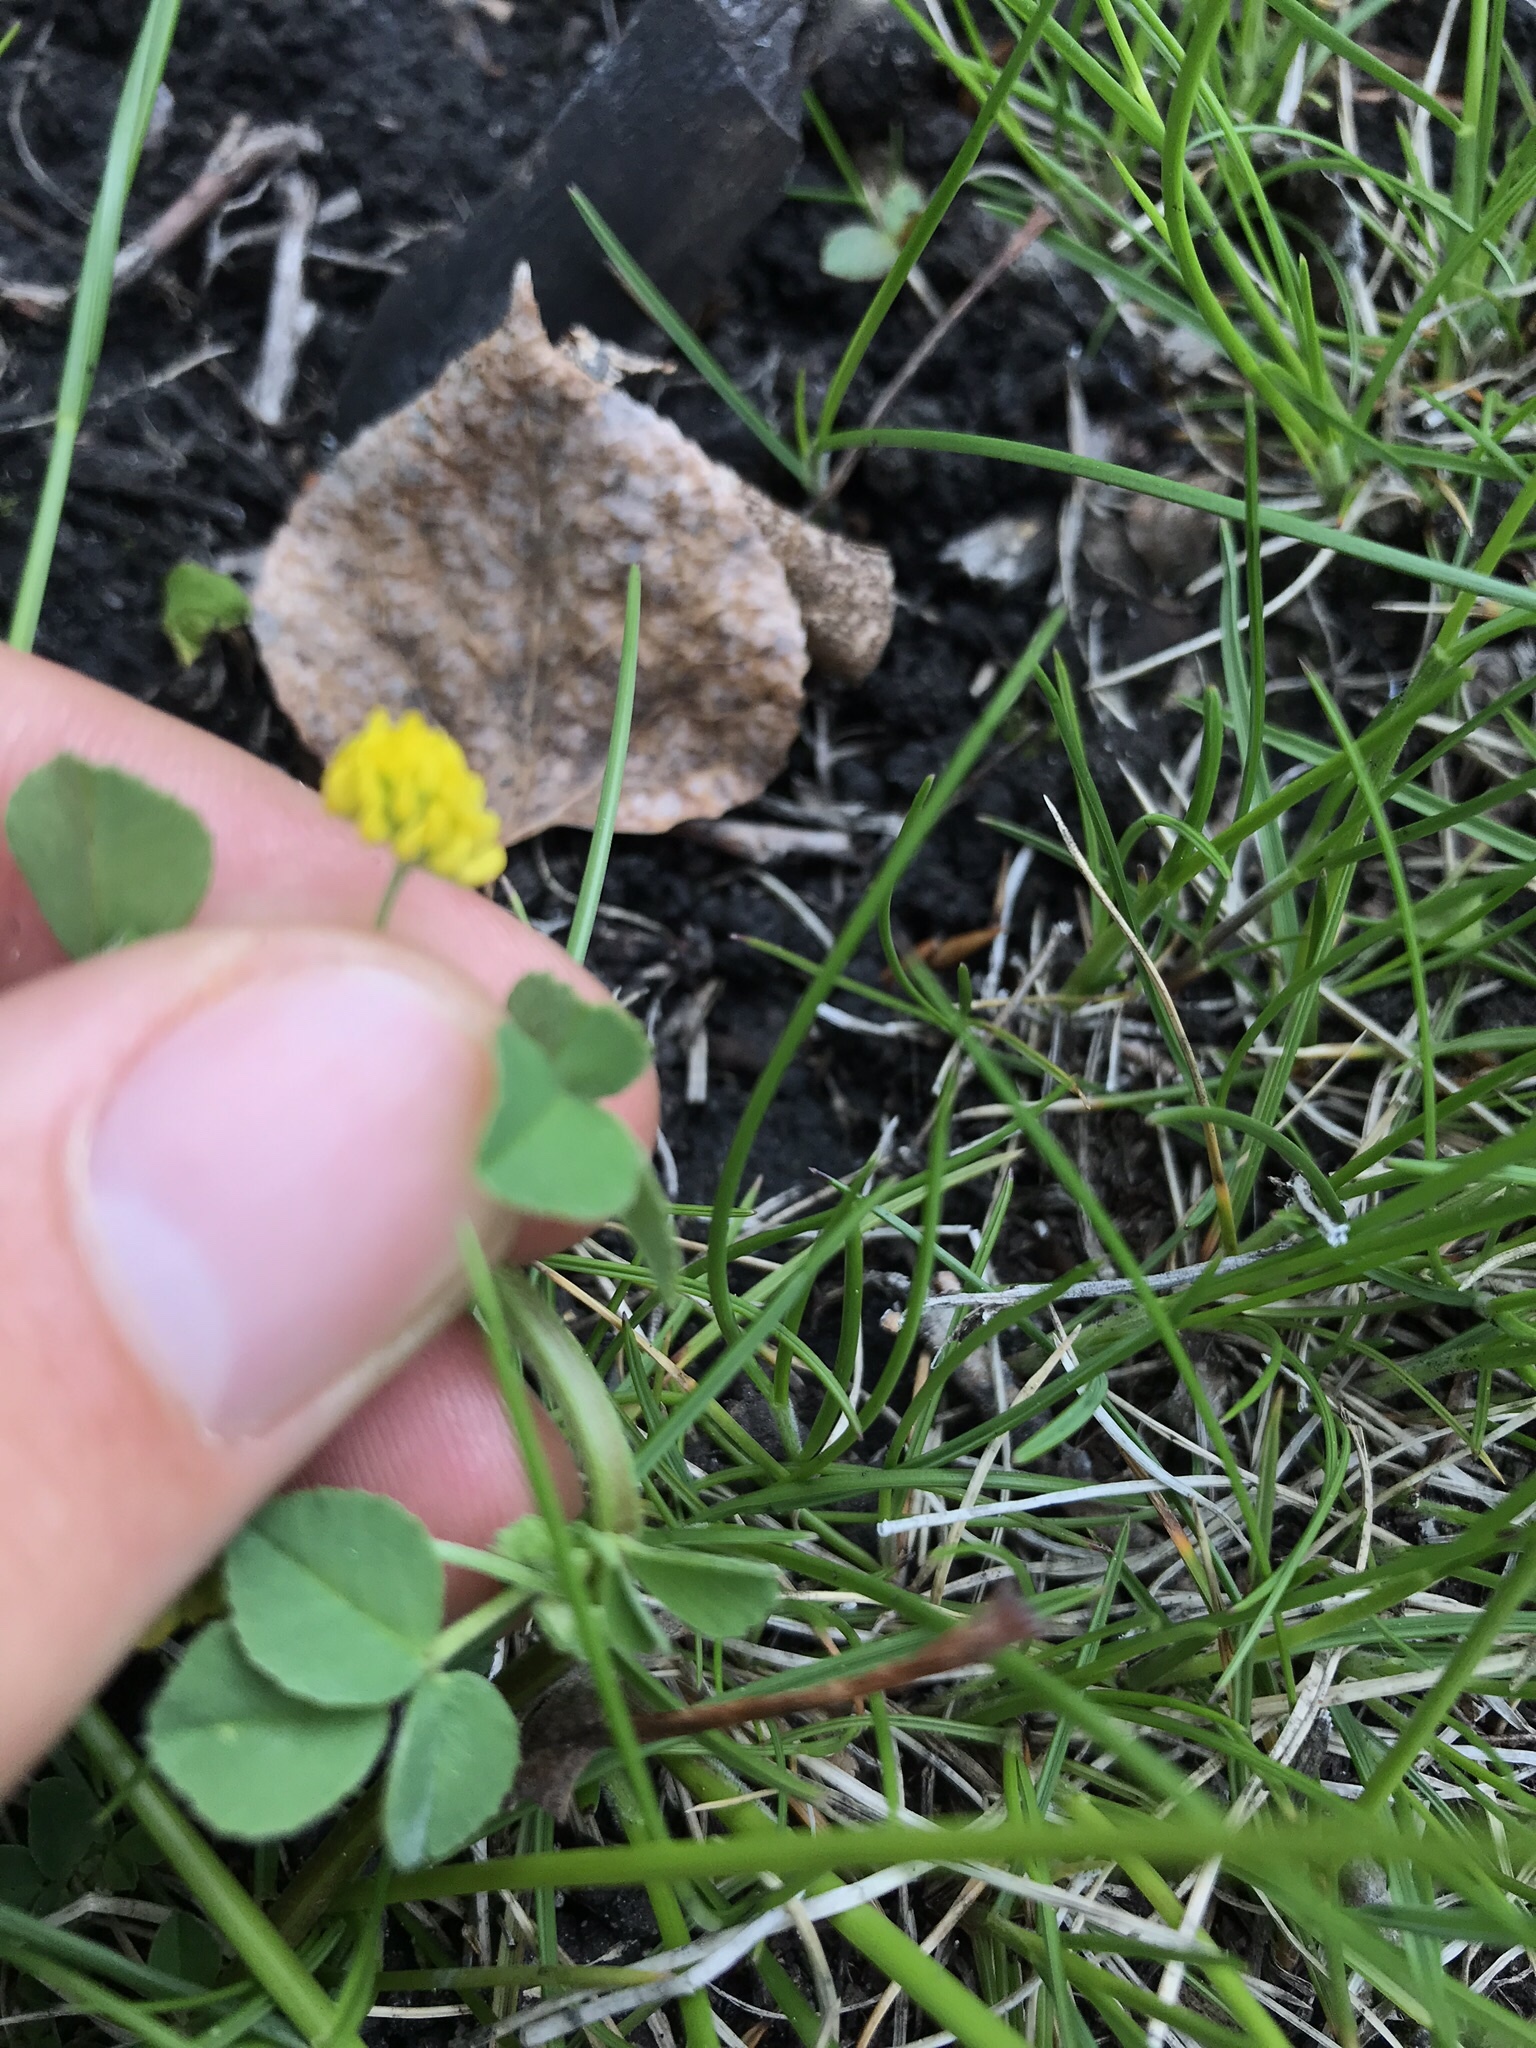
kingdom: Plantae
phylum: Tracheophyta
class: Magnoliopsida
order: Fabales
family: Fabaceae
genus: Medicago
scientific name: Medicago lupulina
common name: Black medick
